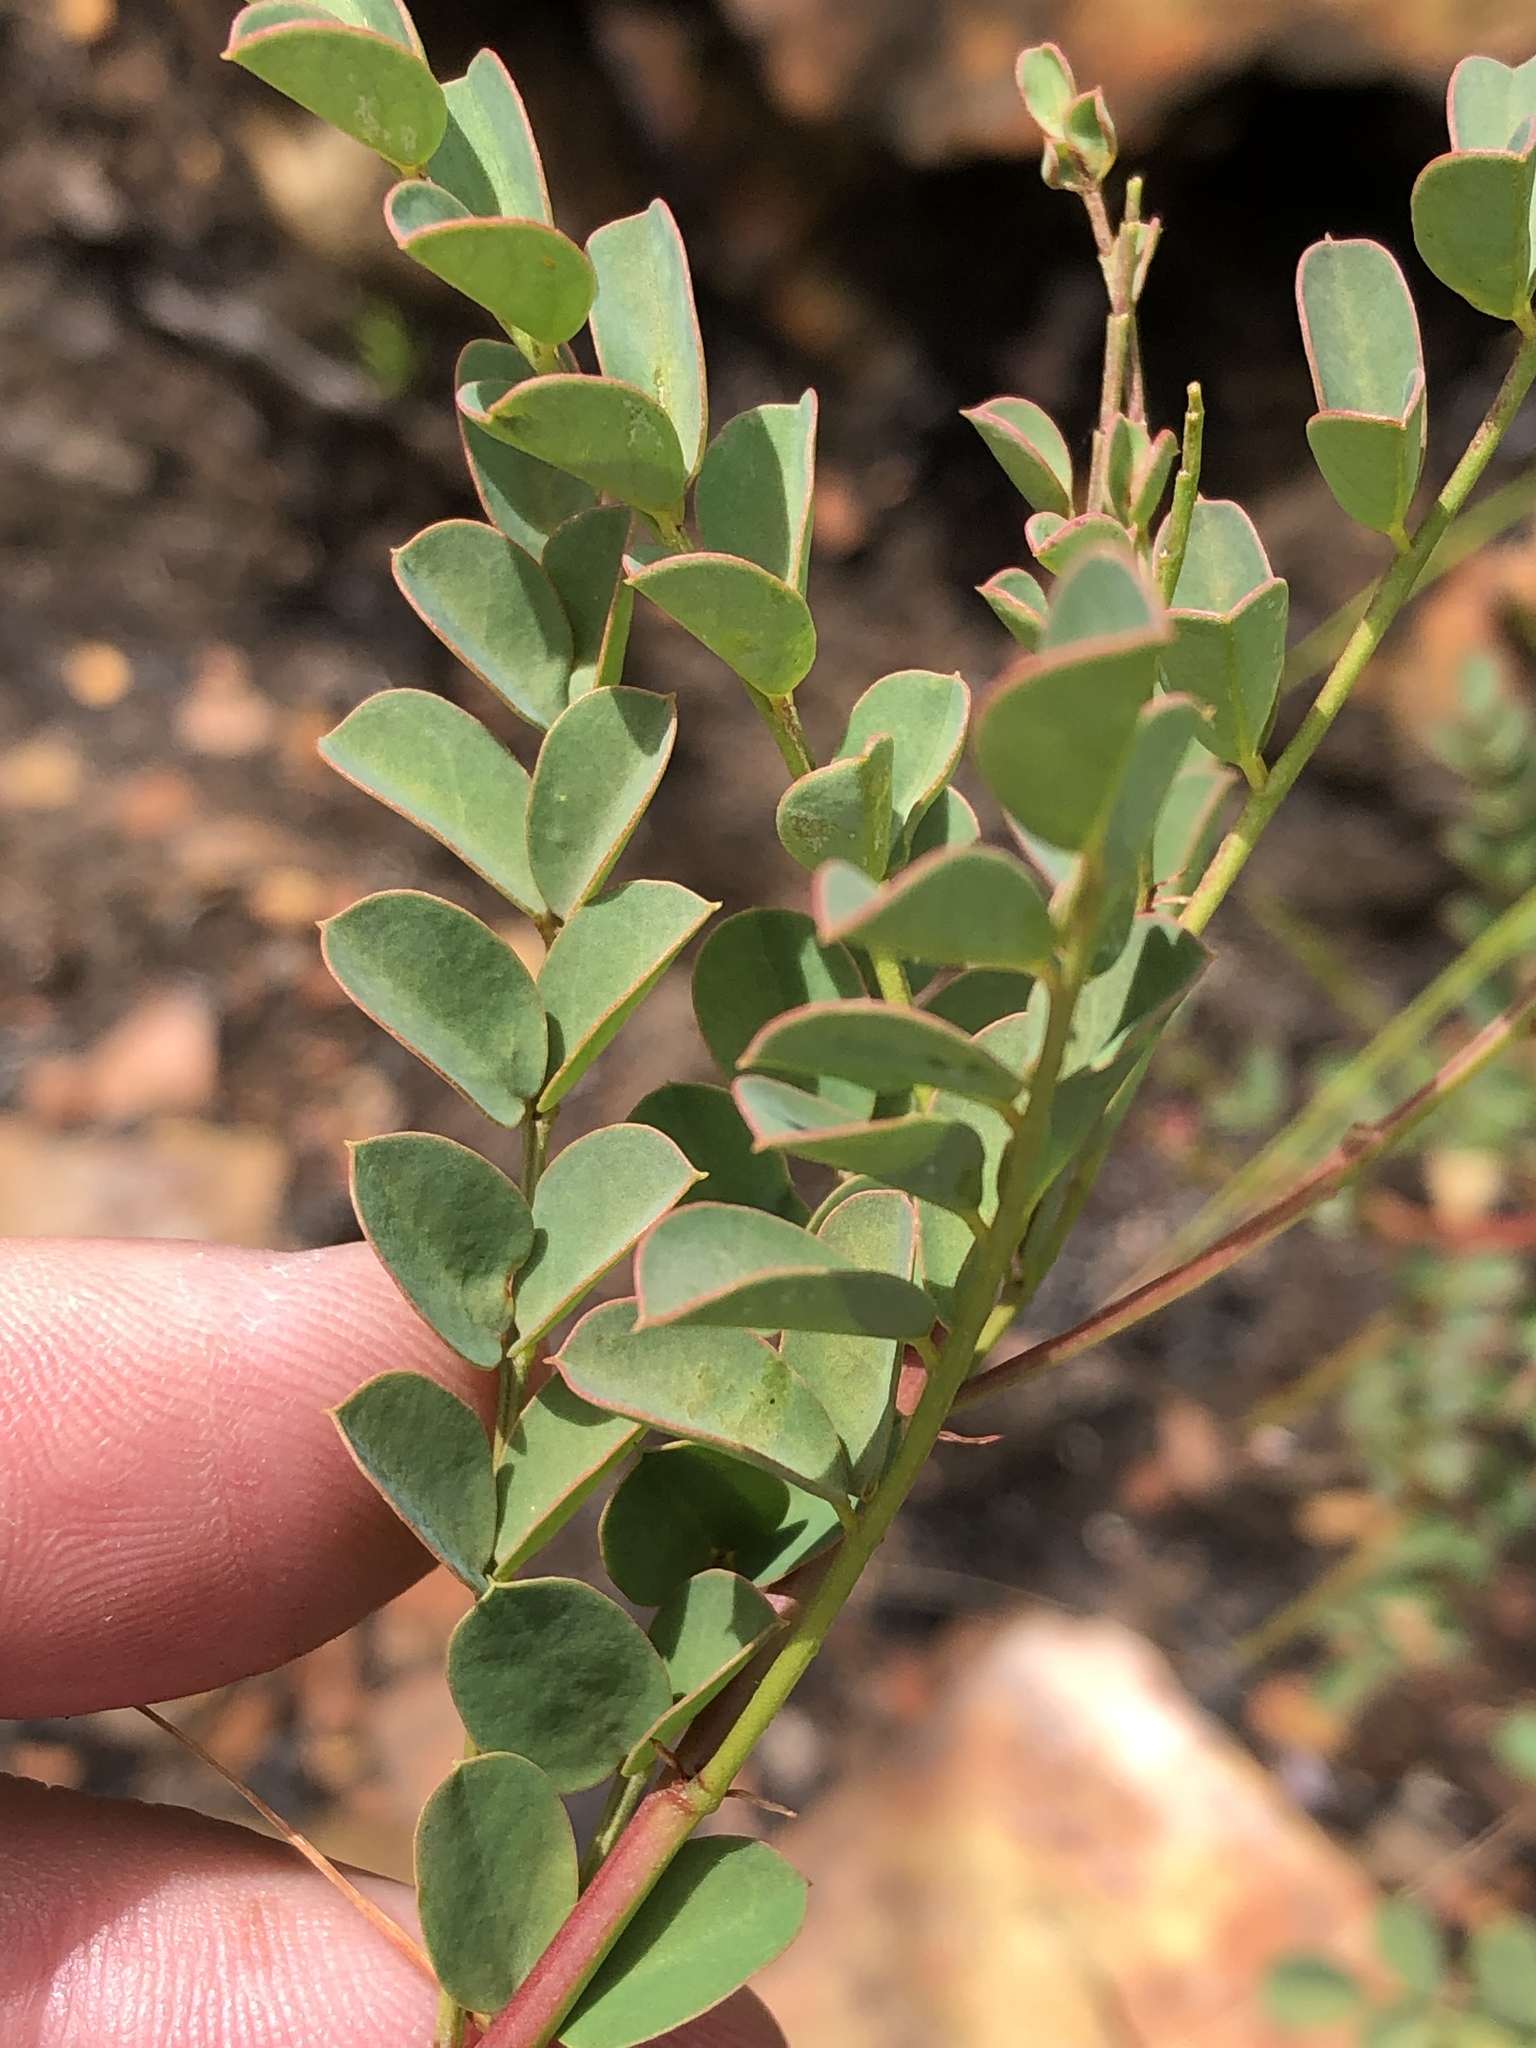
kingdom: Plantae
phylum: Tracheophyta
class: Magnoliopsida
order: Fabales
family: Fabaceae
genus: Indigofera
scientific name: Indigofera langebergensis
